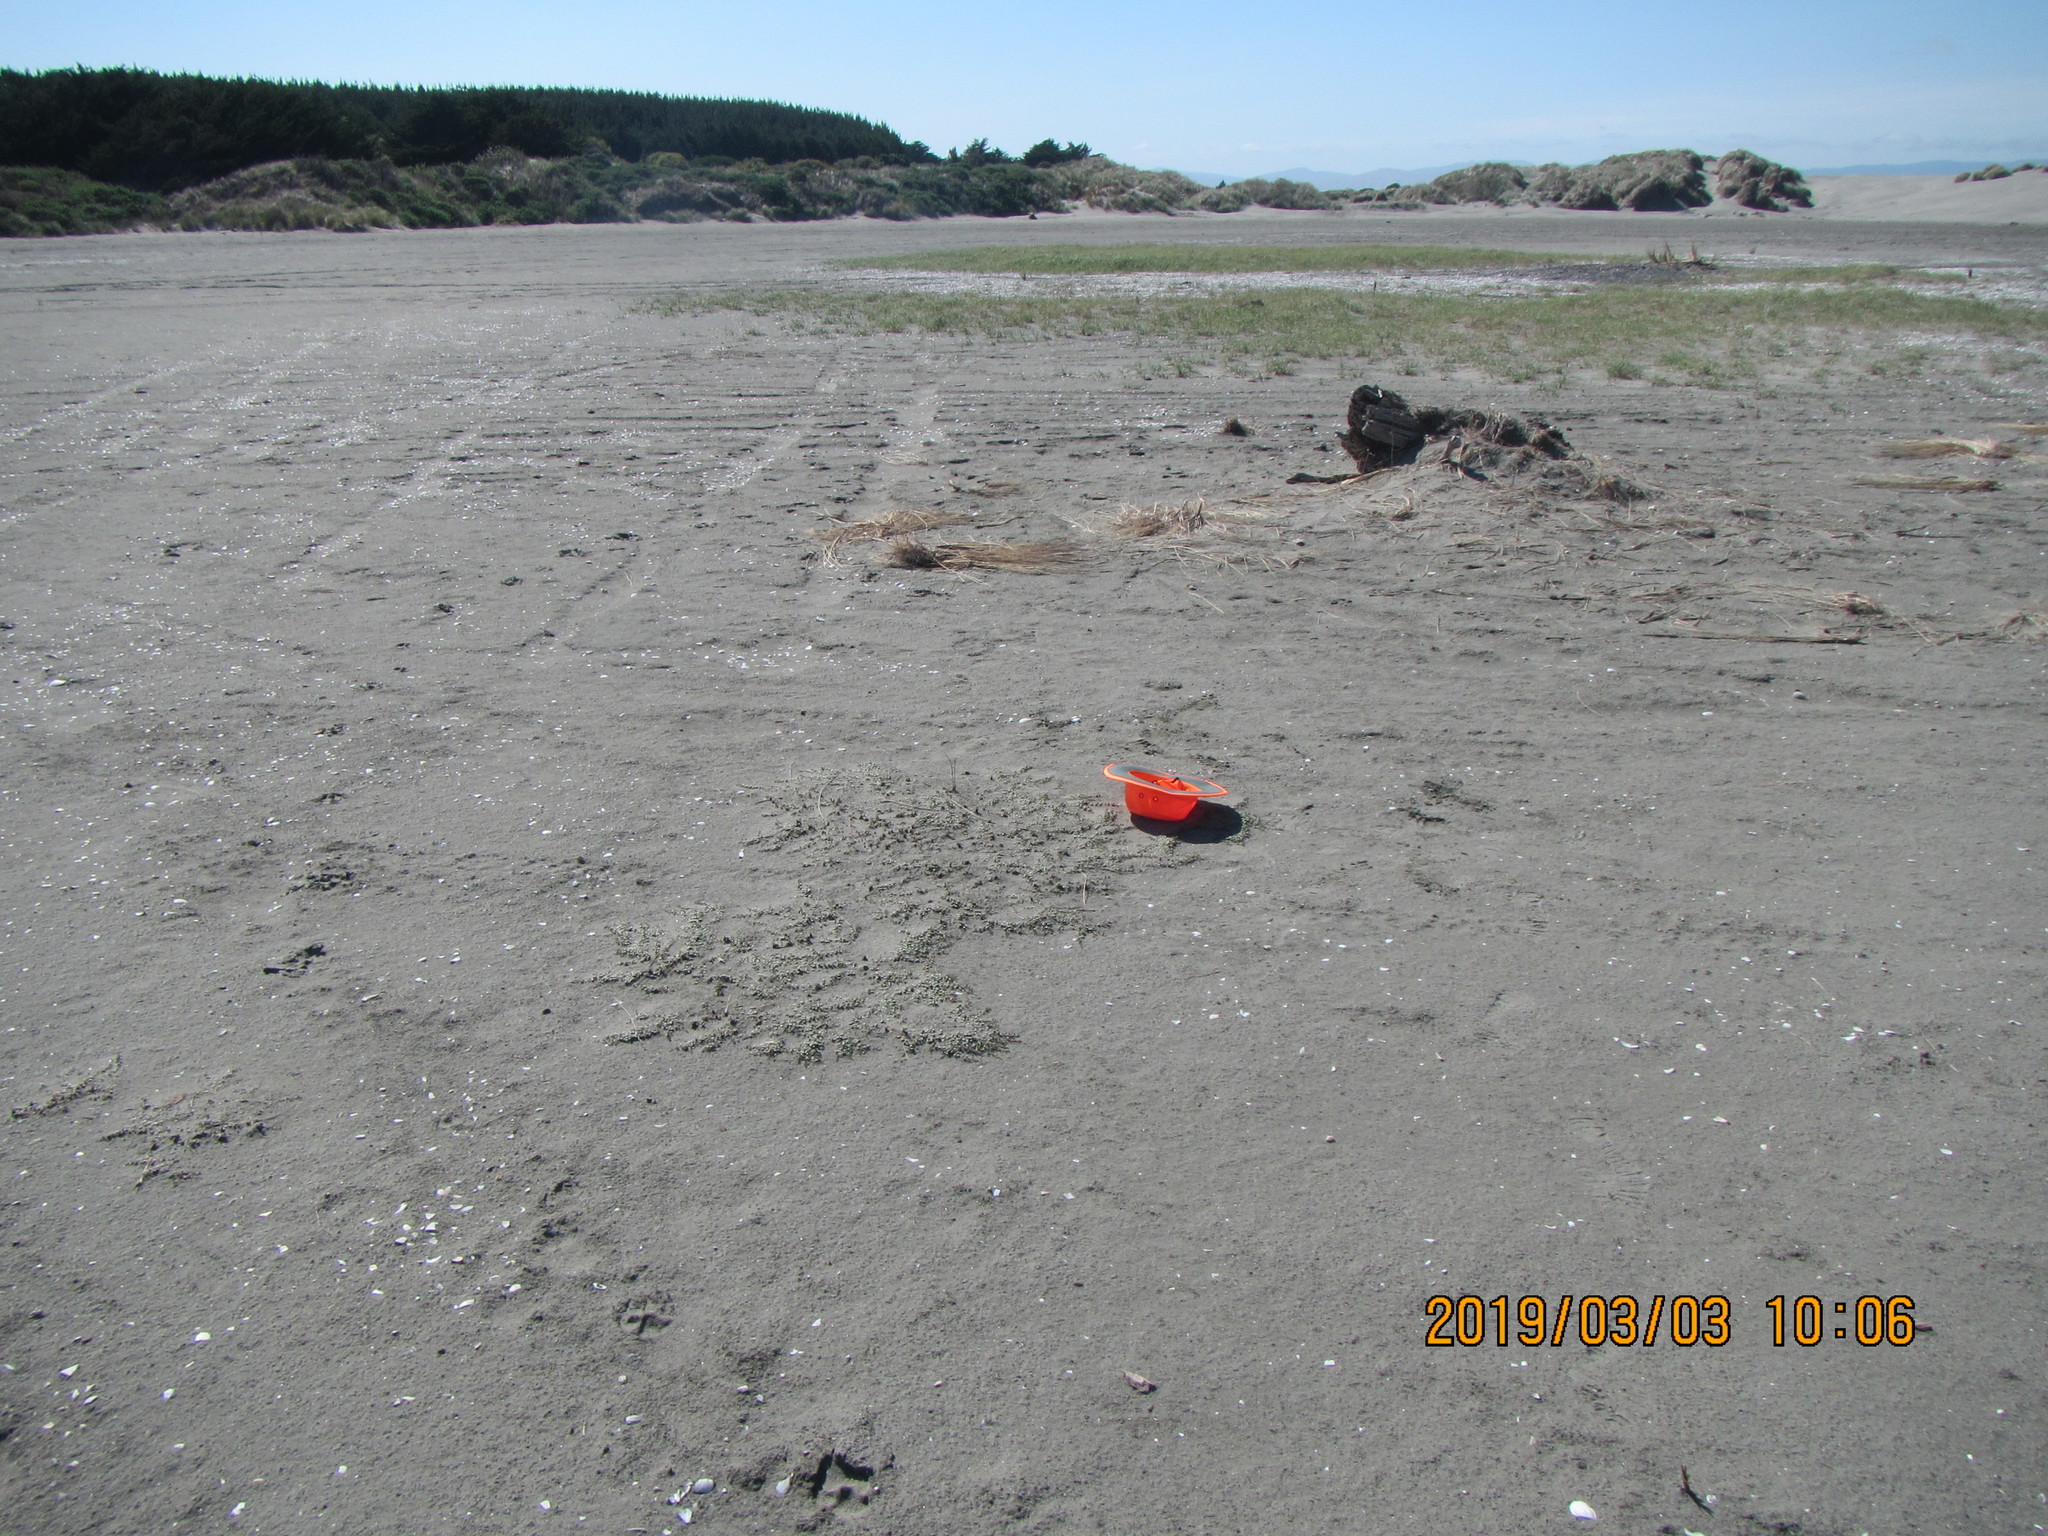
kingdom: Plantae
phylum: Tracheophyta
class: Magnoliopsida
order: Ericales
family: Primulaceae
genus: Samolus
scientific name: Samolus repens
